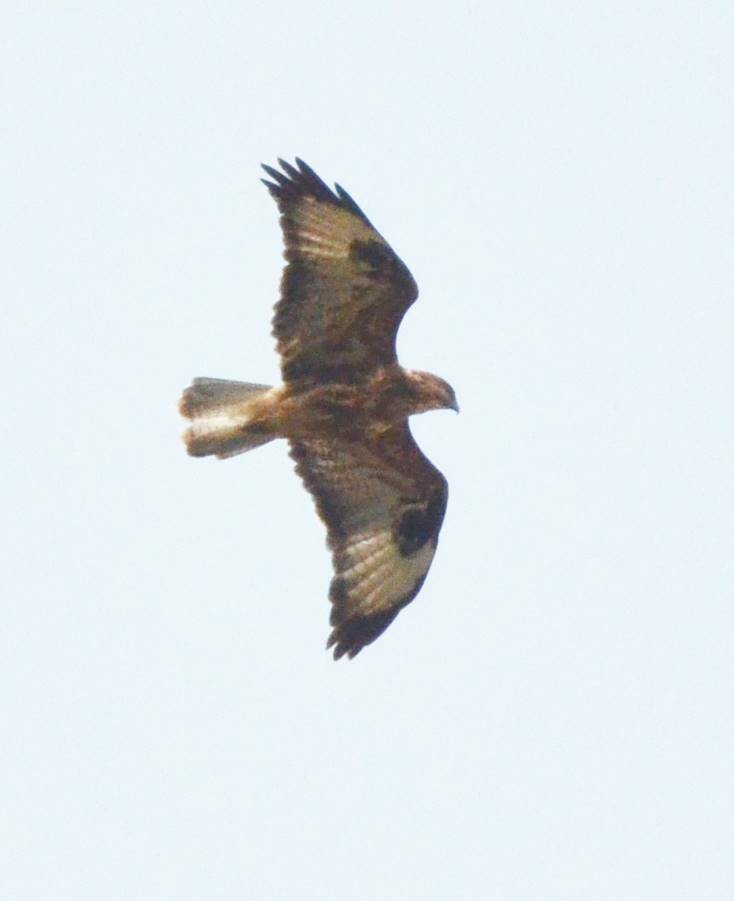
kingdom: Animalia
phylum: Chordata
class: Aves
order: Accipitriformes
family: Accipitridae
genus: Buteo
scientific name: Buteo rufinus
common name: Long-legged buzzard
